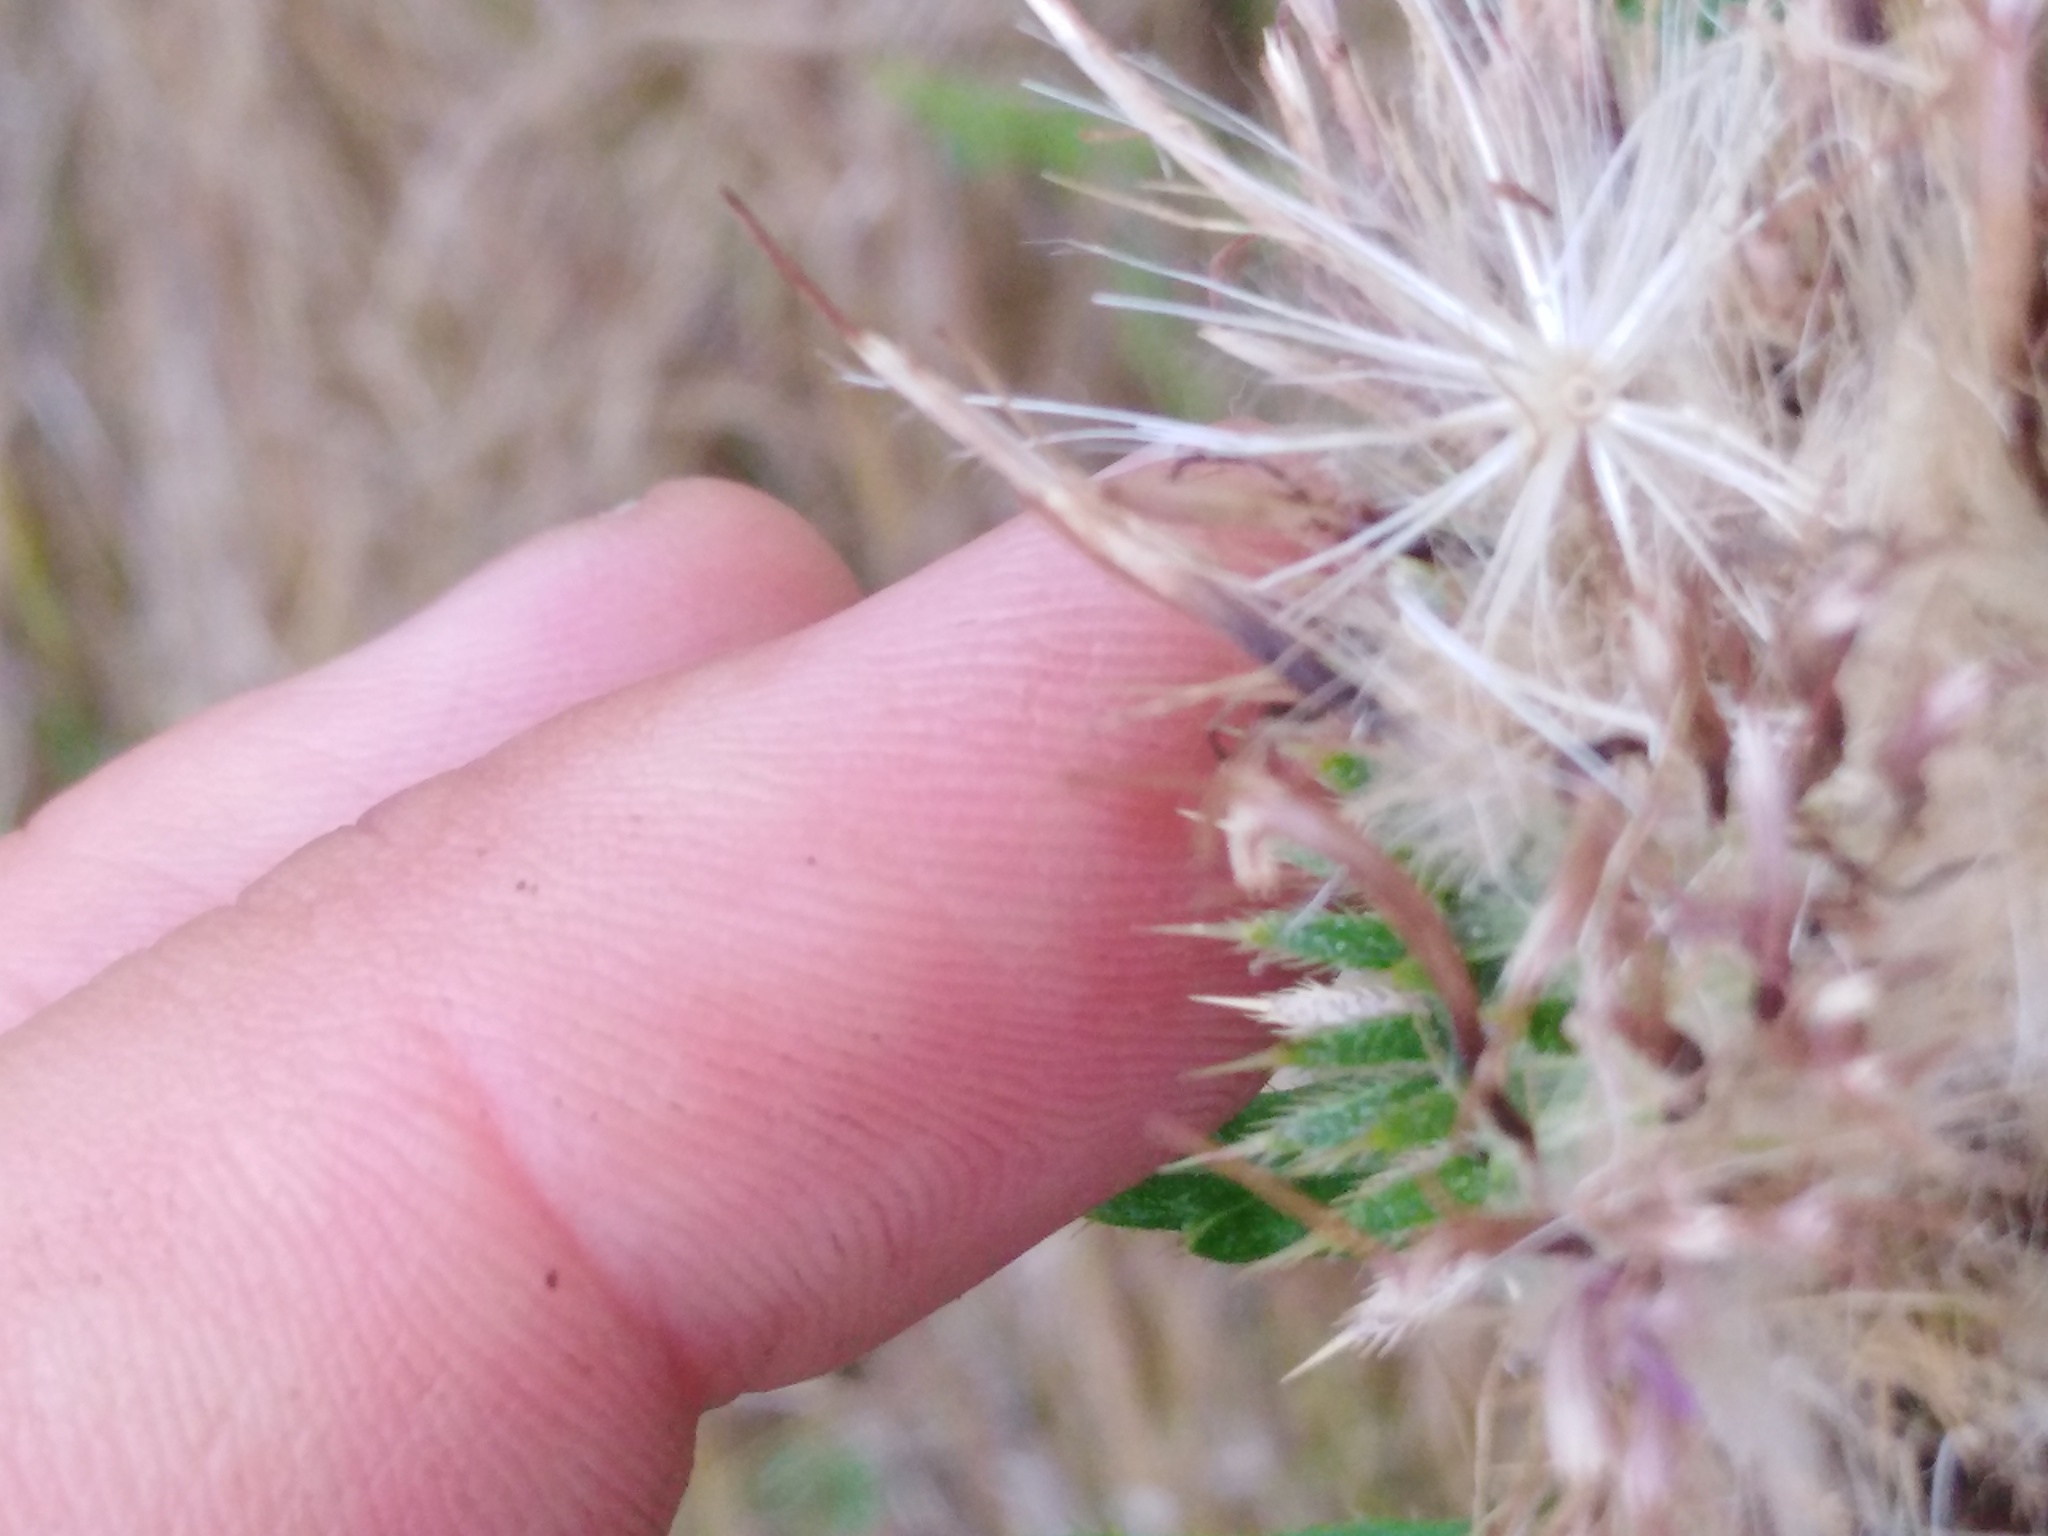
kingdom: Plantae
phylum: Tracheophyta
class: Magnoliopsida
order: Asterales
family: Asteraceae
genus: Cirsium
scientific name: Cirsium serrulatum
